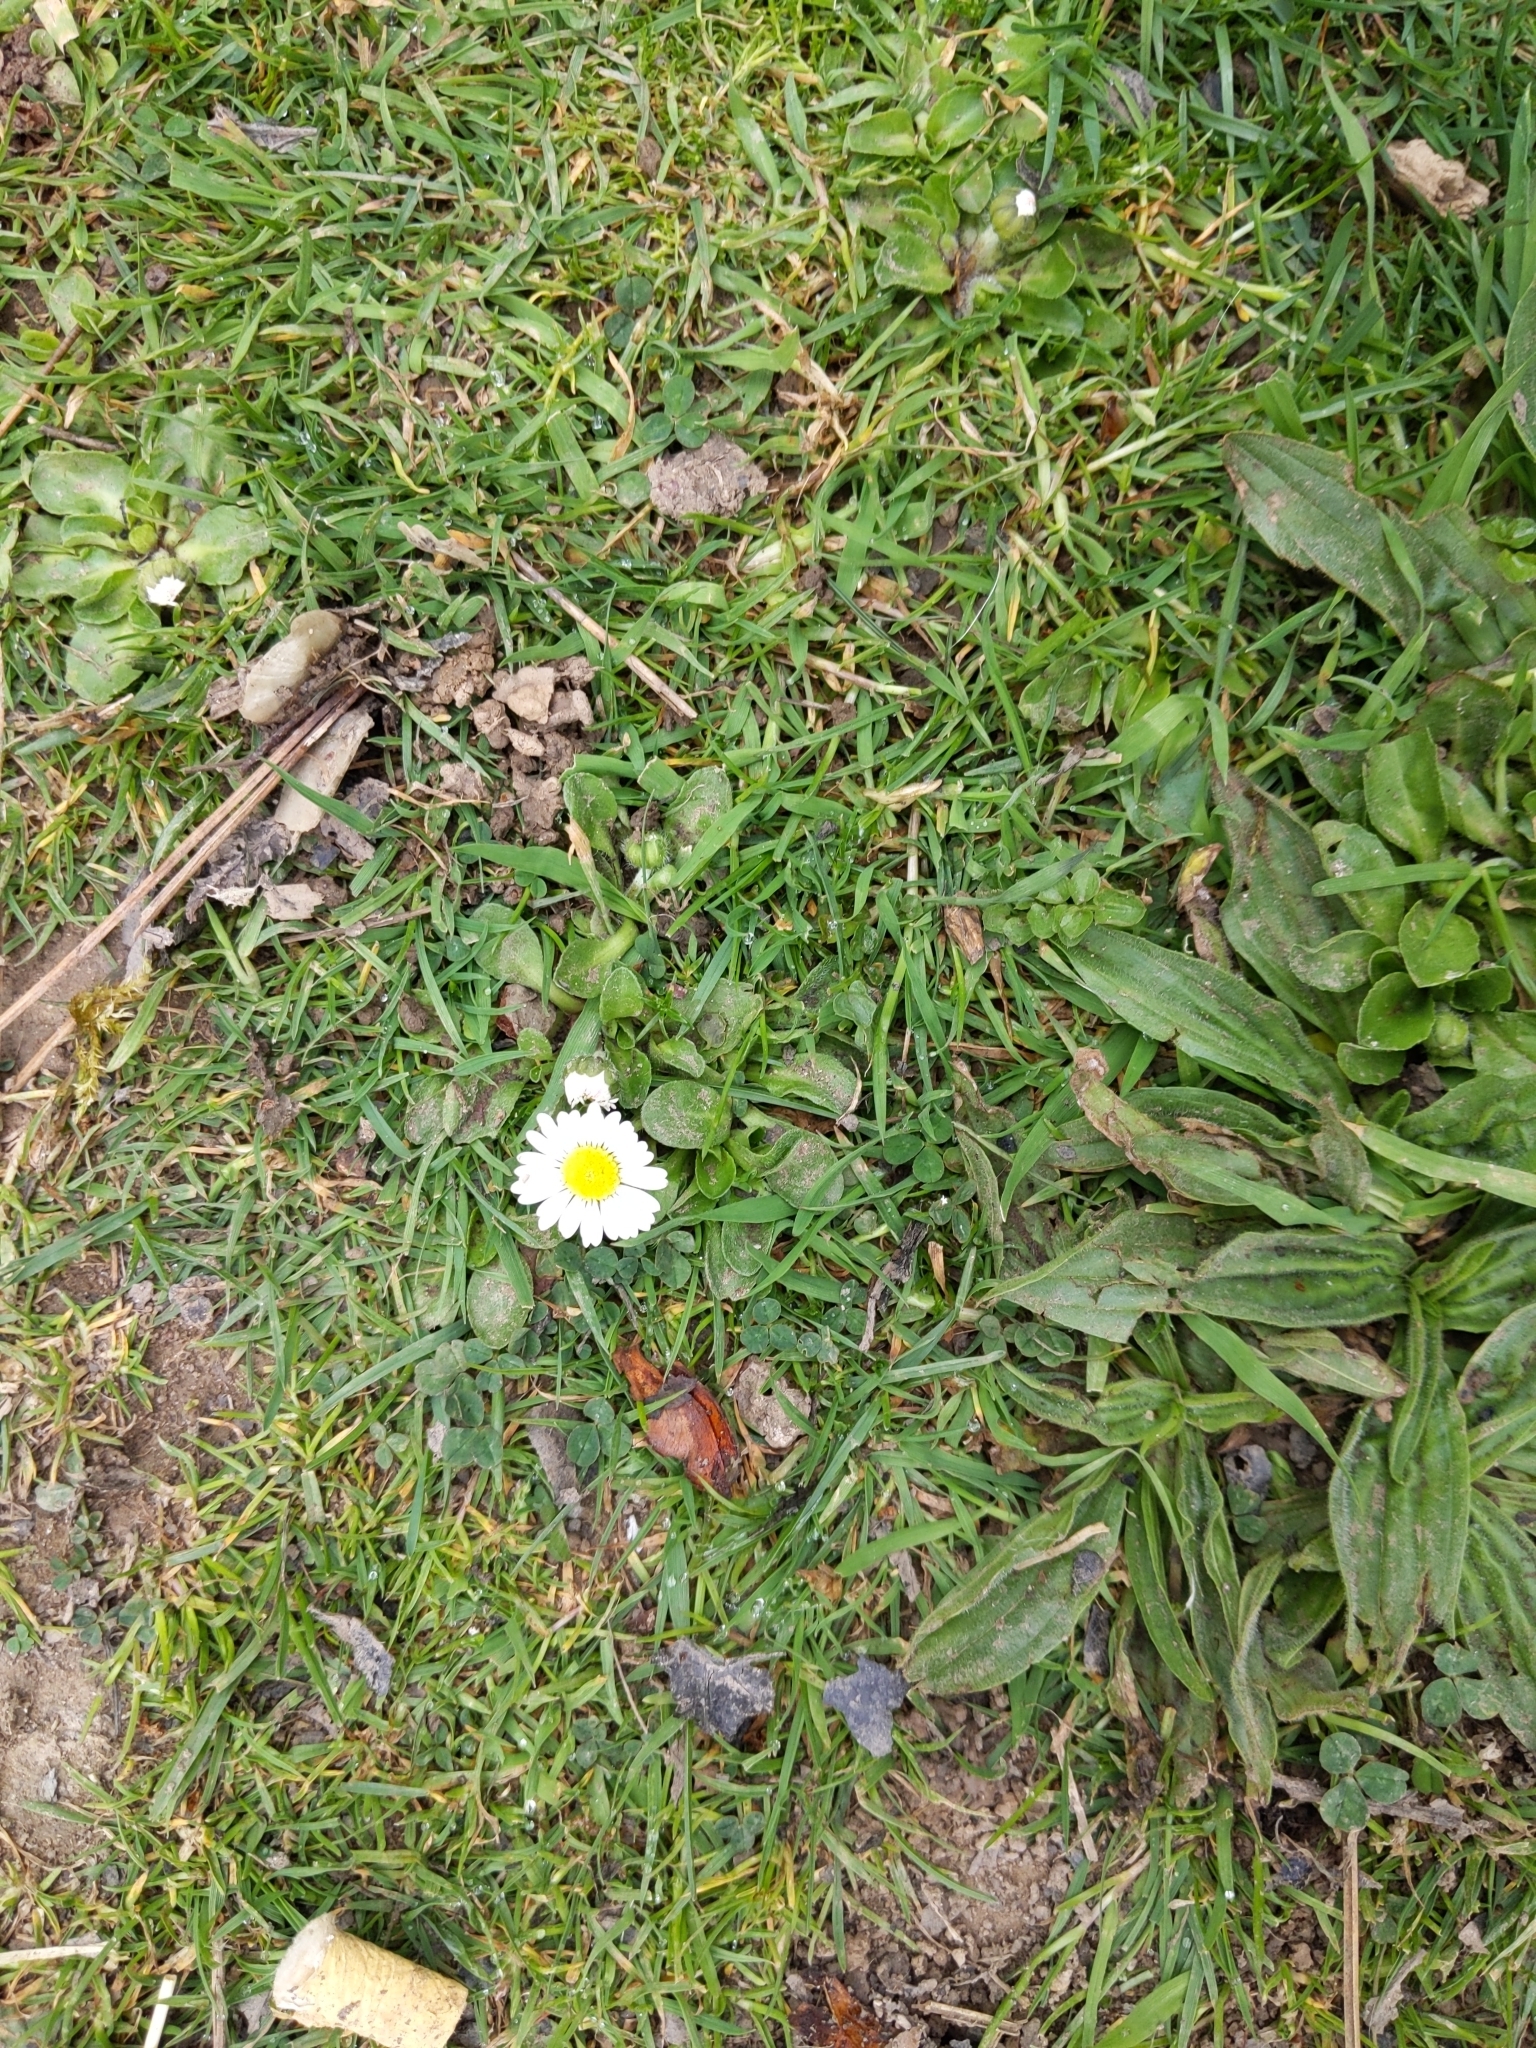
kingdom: Plantae
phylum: Tracheophyta
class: Magnoliopsida
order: Asterales
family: Asteraceae
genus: Bellis
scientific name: Bellis perennis
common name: Lawndaisy
